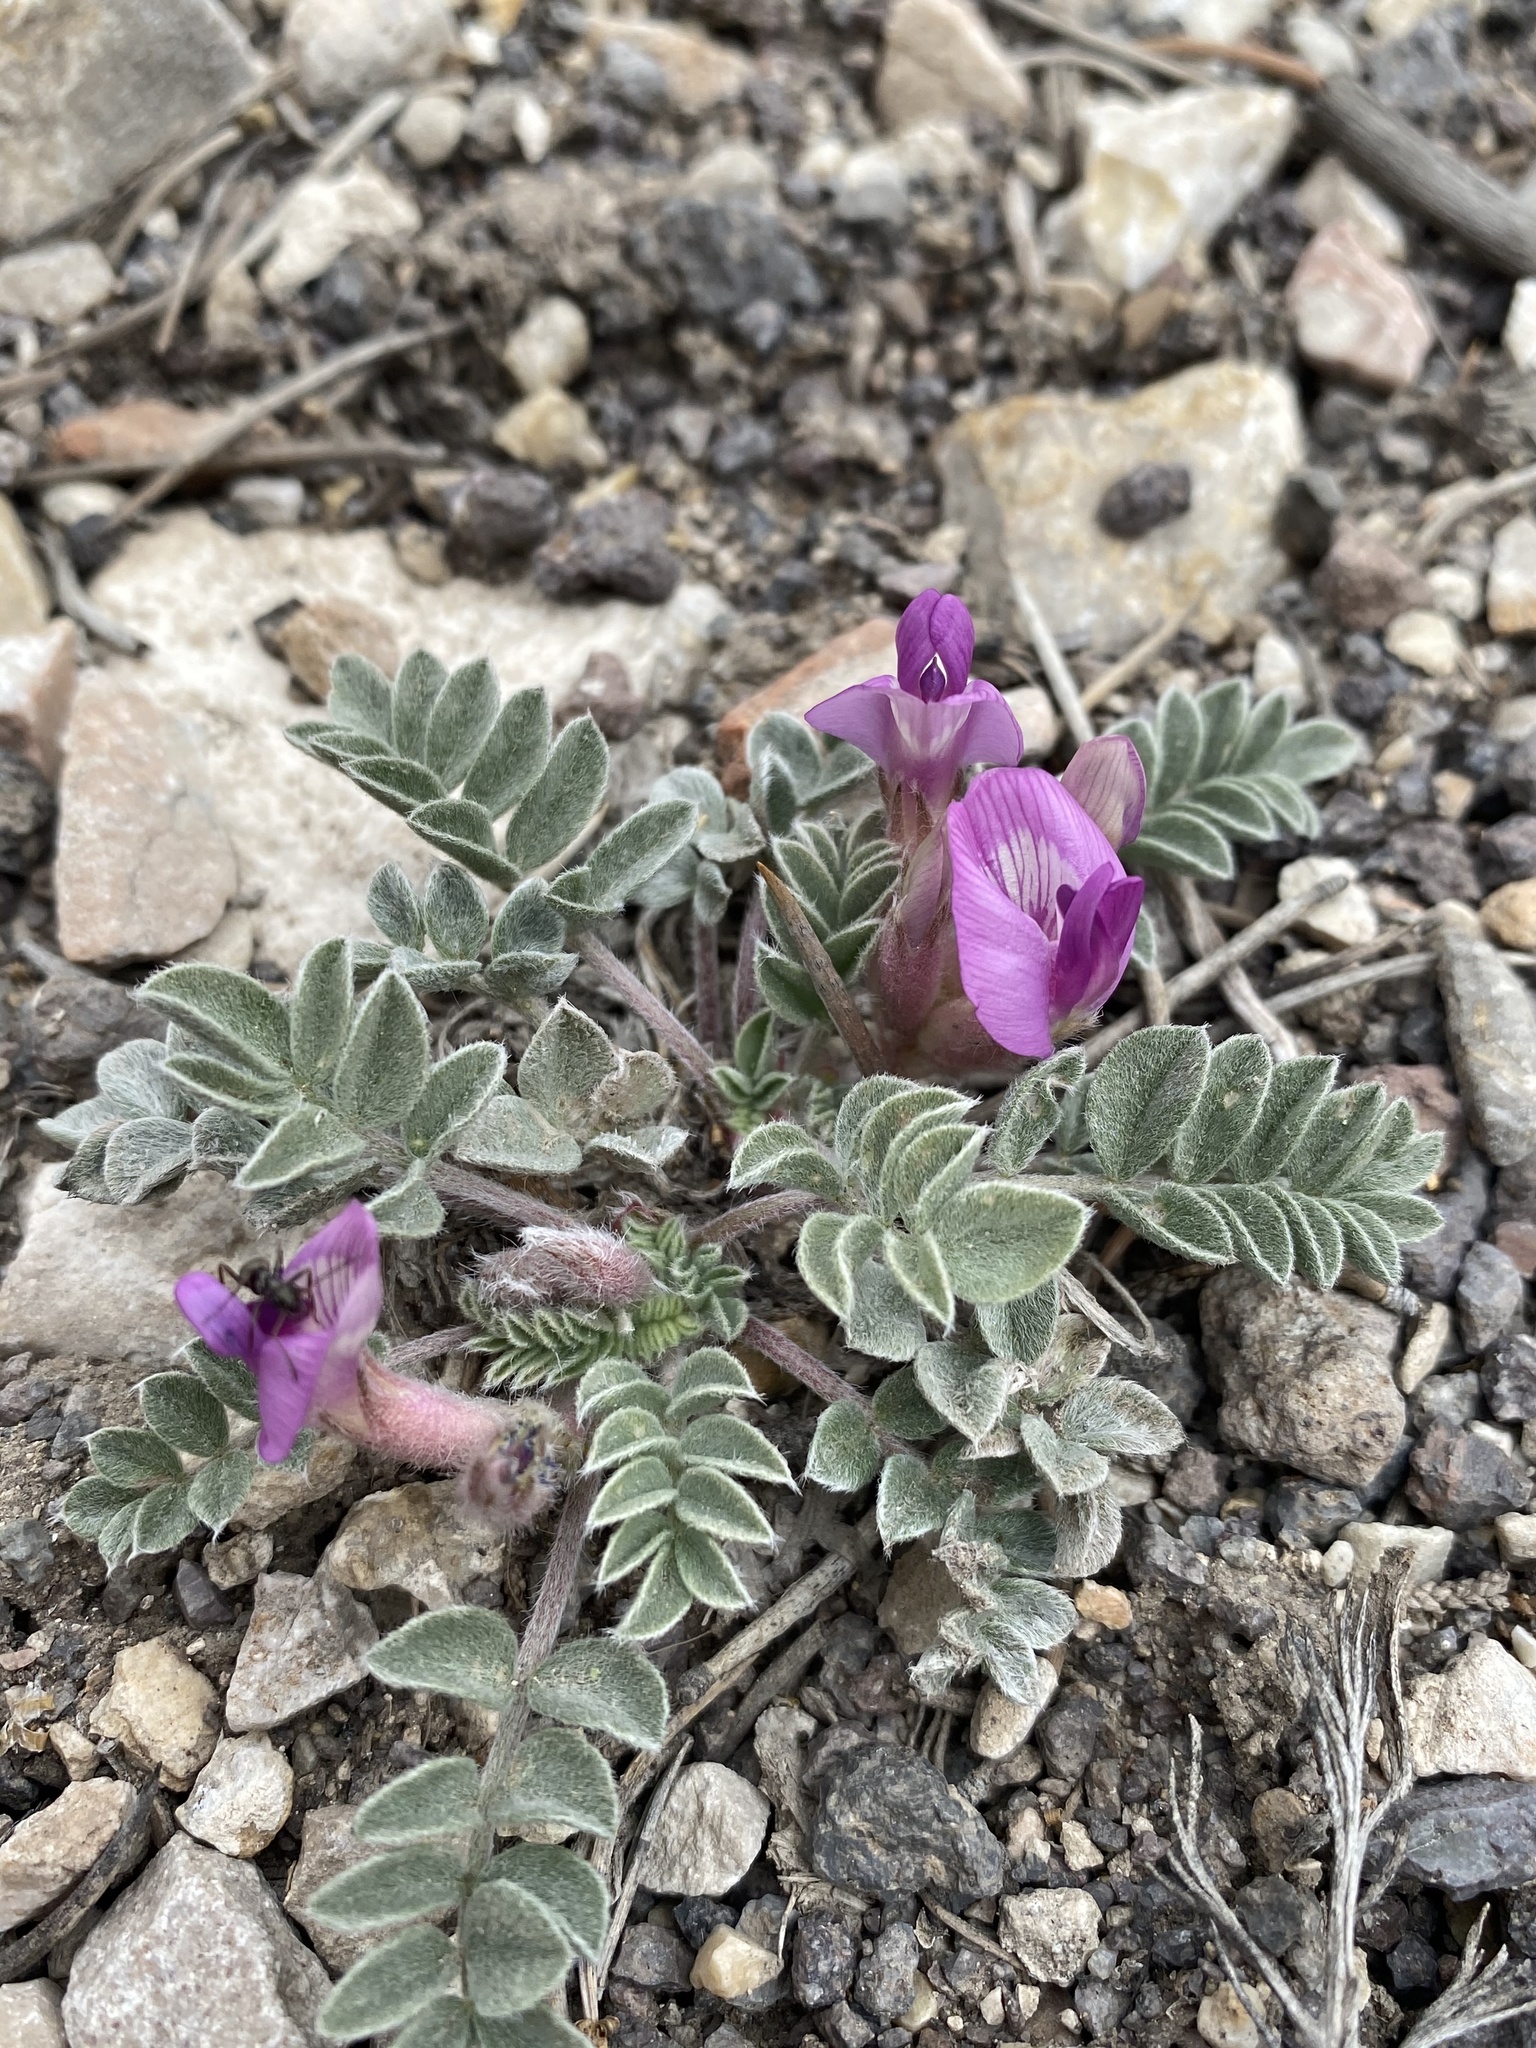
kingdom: Plantae
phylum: Tracheophyta
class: Magnoliopsida
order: Fabales
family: Fabaceae
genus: Astragalus
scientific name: Astragalus newberryi
